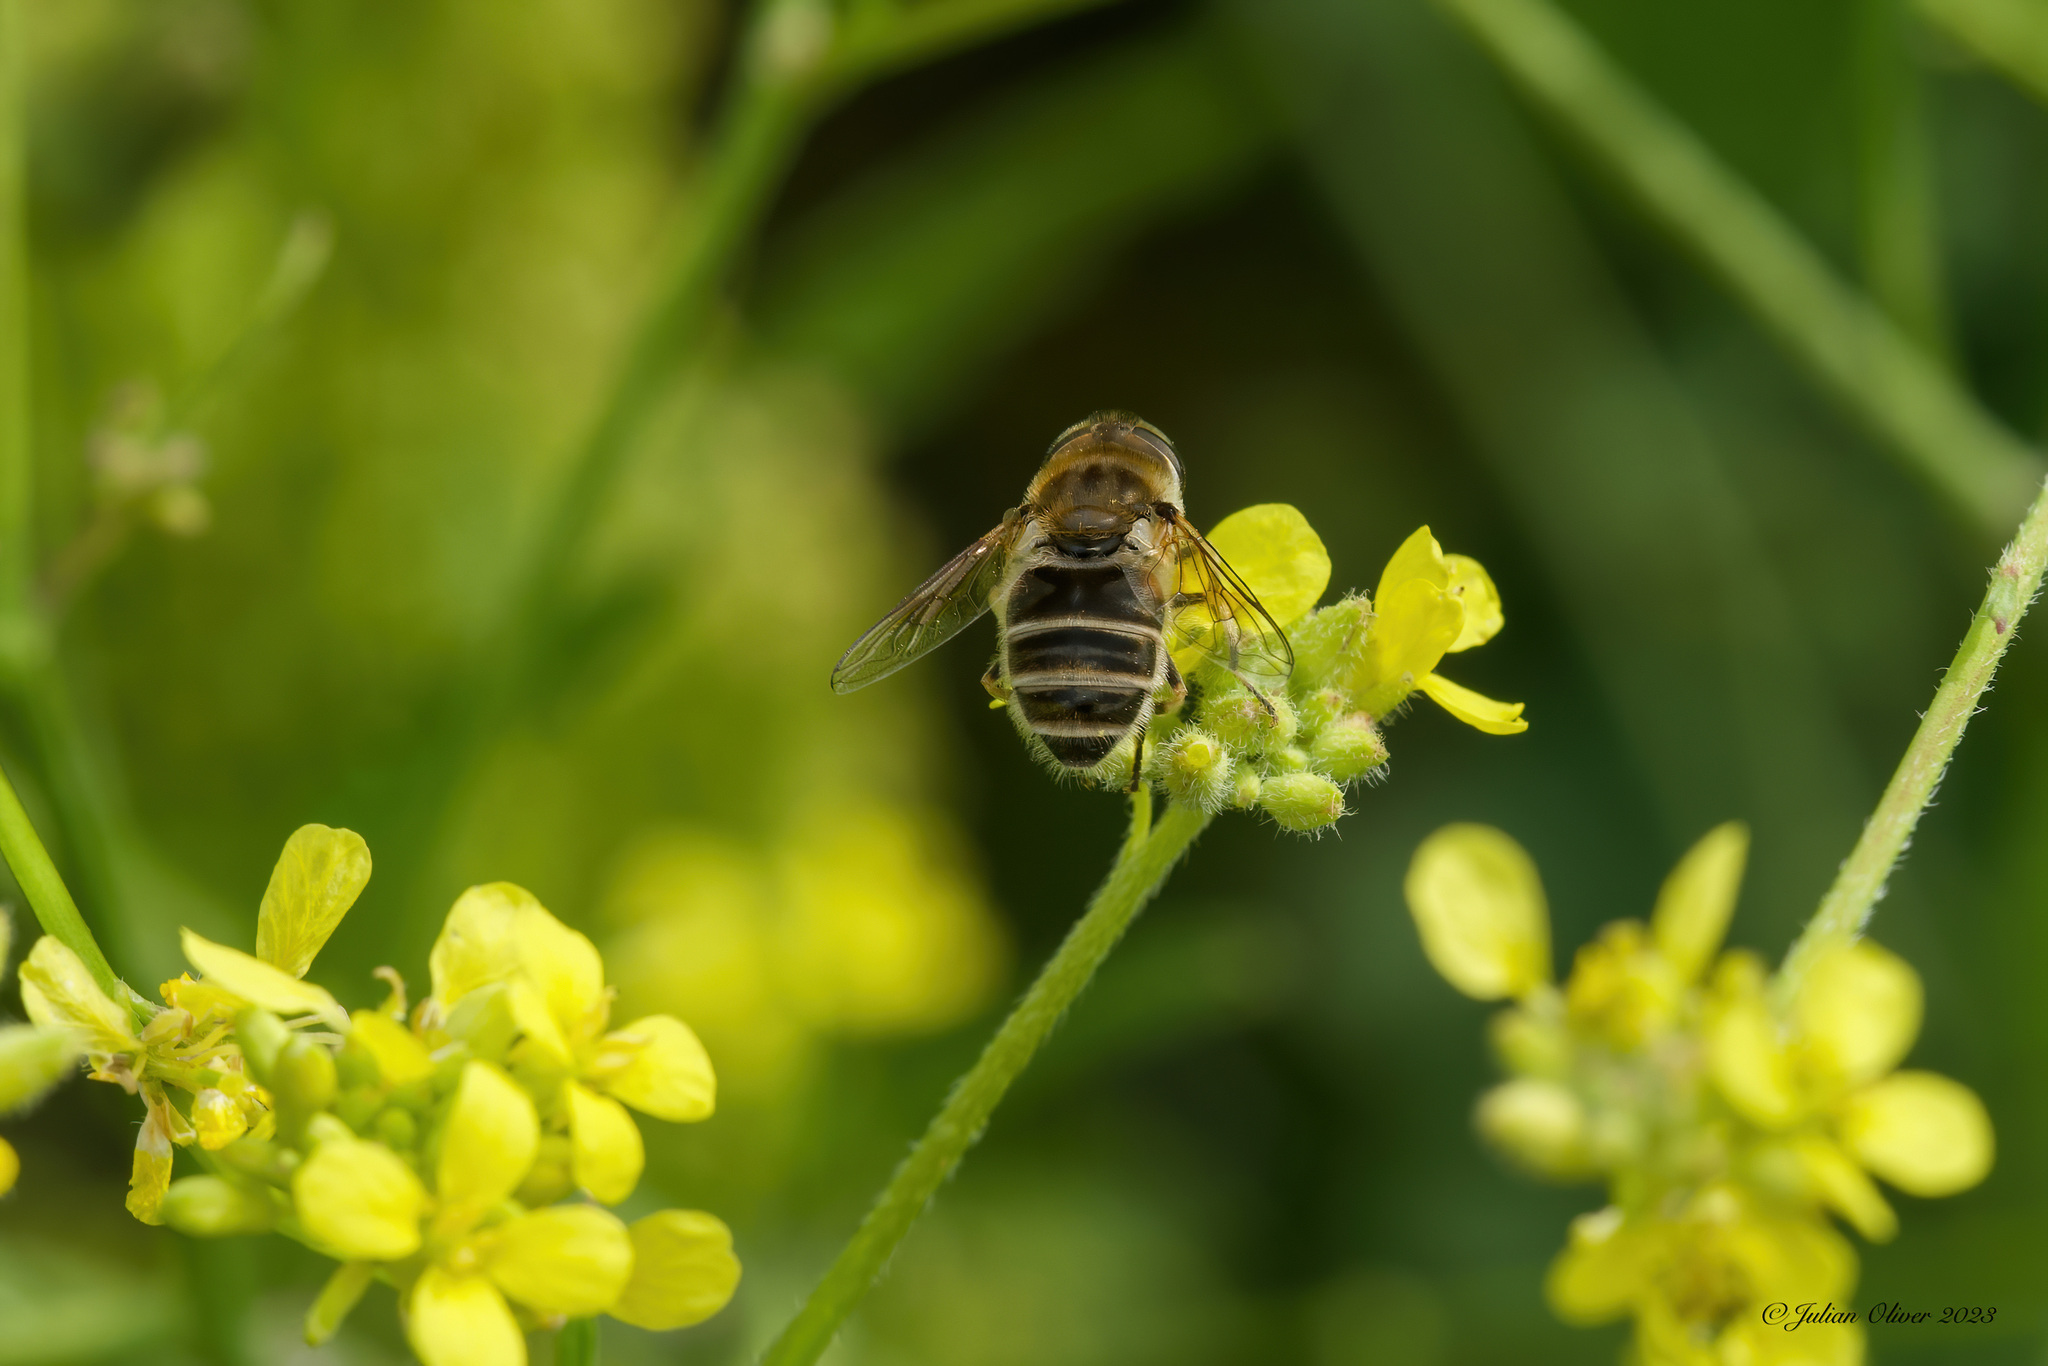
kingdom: Animalia
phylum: Arthropoda
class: Insecta
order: Diptera
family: Syrphidae
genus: Eoseristalis
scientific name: Eoseristalis
